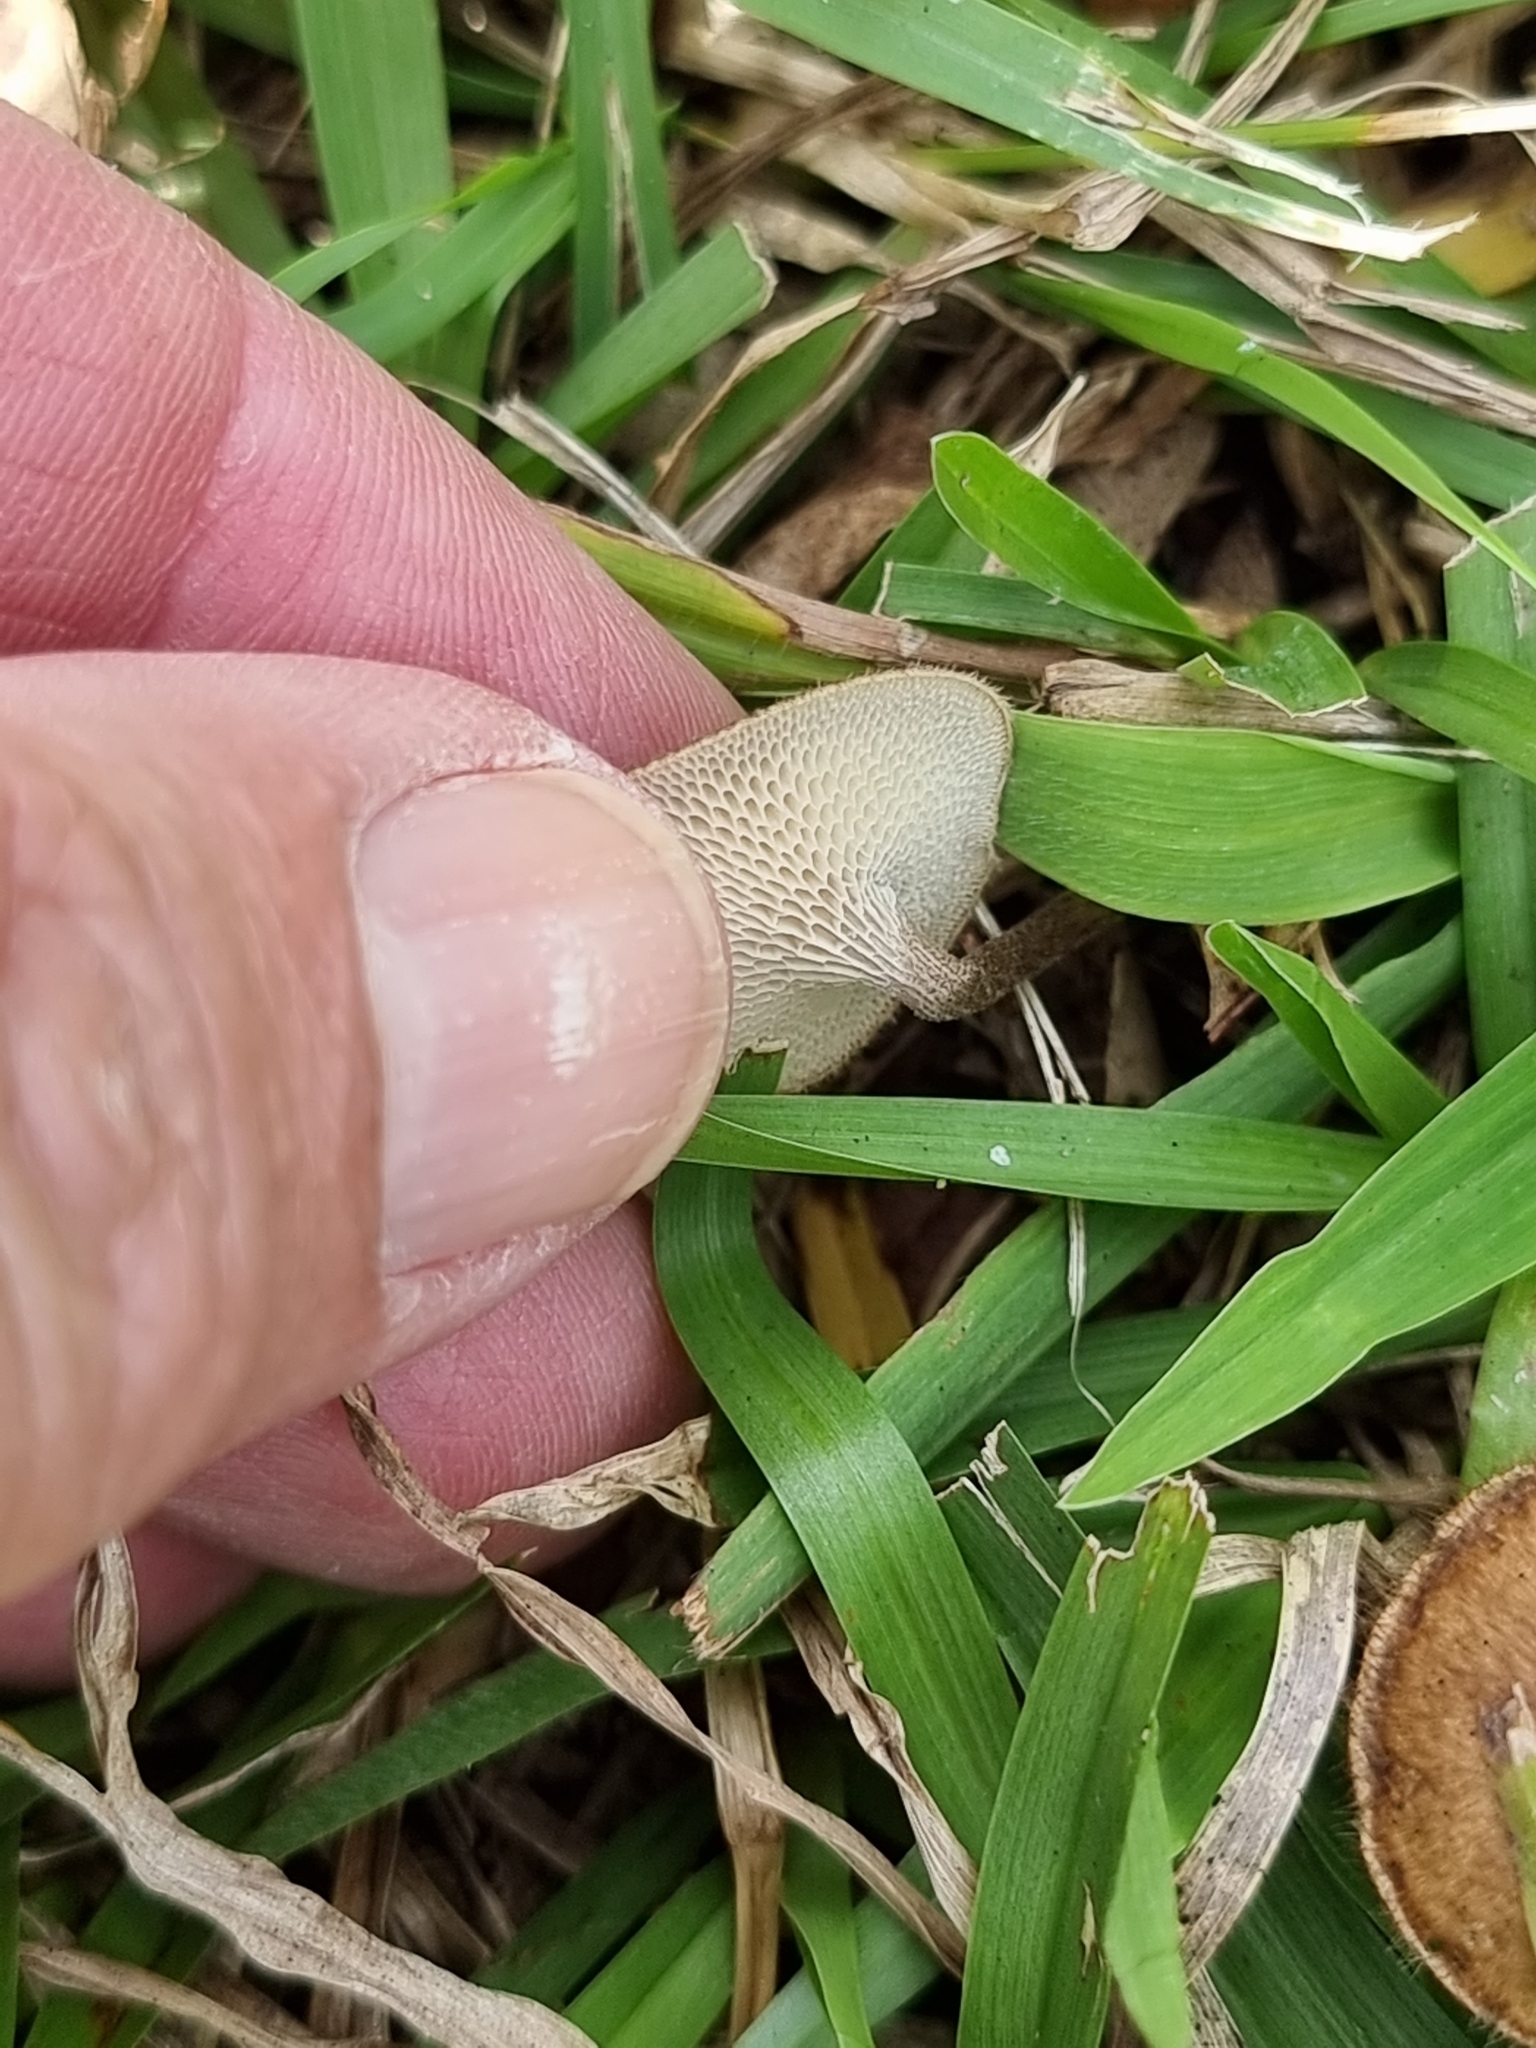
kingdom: Fungi
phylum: Basidiomycota
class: Agaricomycetes
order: Polyporales
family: Polyporaceae
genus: Lentinus
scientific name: Lentinus arcularius
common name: Spring polypore
